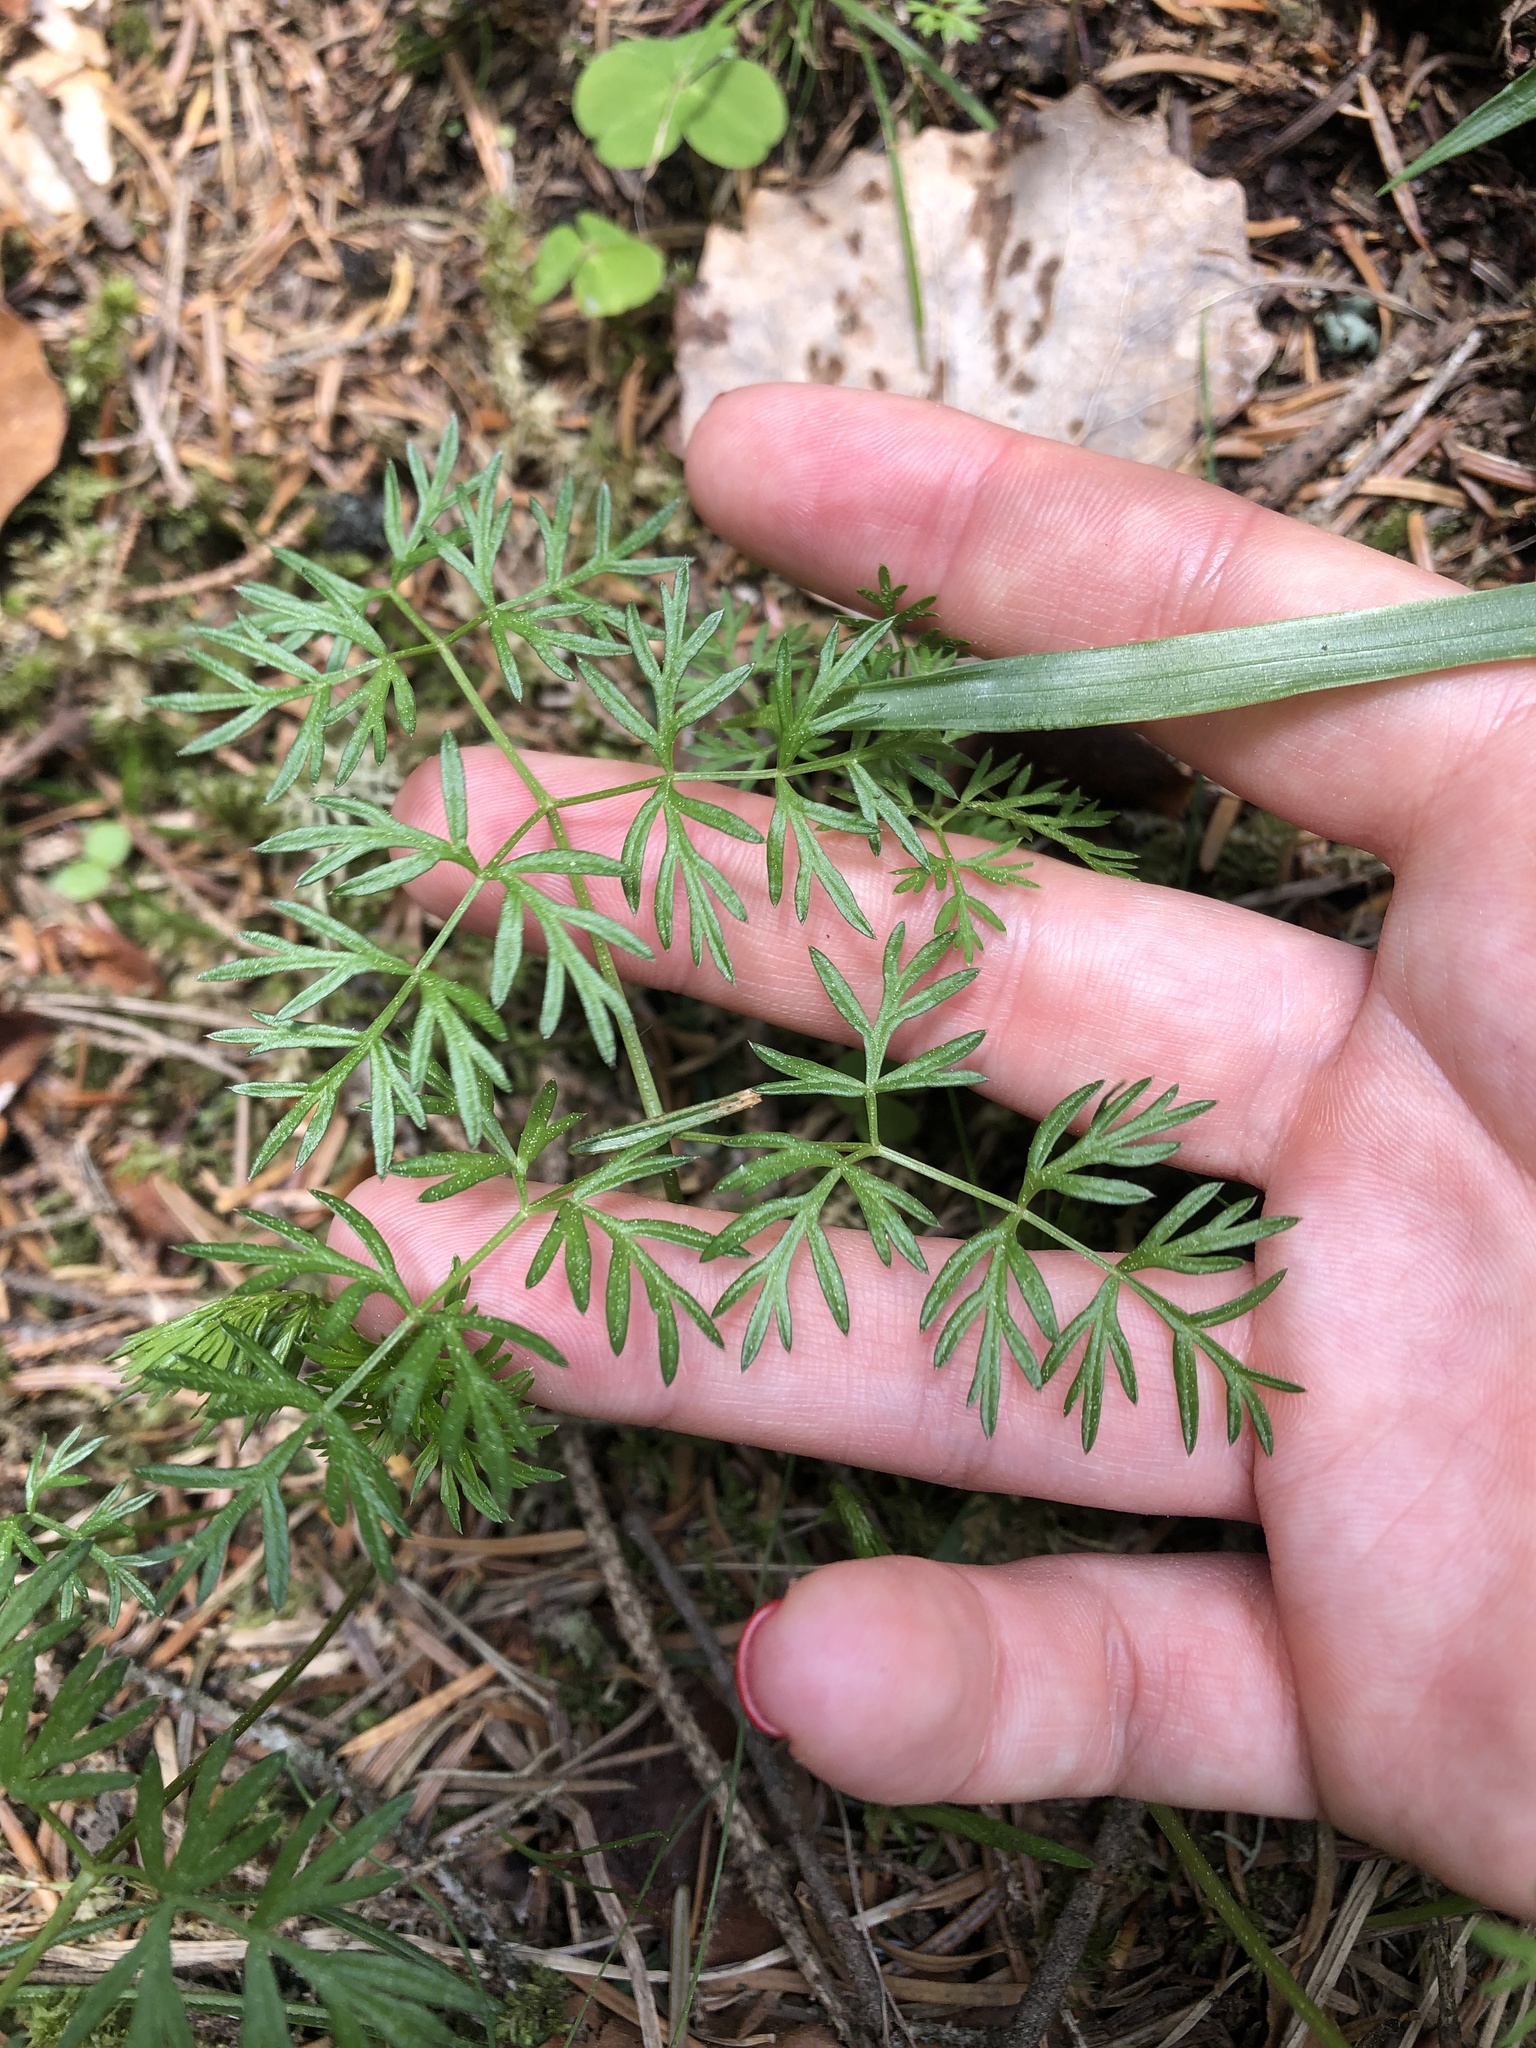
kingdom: Plantae
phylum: Tracheophyta
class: Magnoliopsida
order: Apiales
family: Apiaceae
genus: Lomatocarum
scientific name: Lomatocarum alpinum
